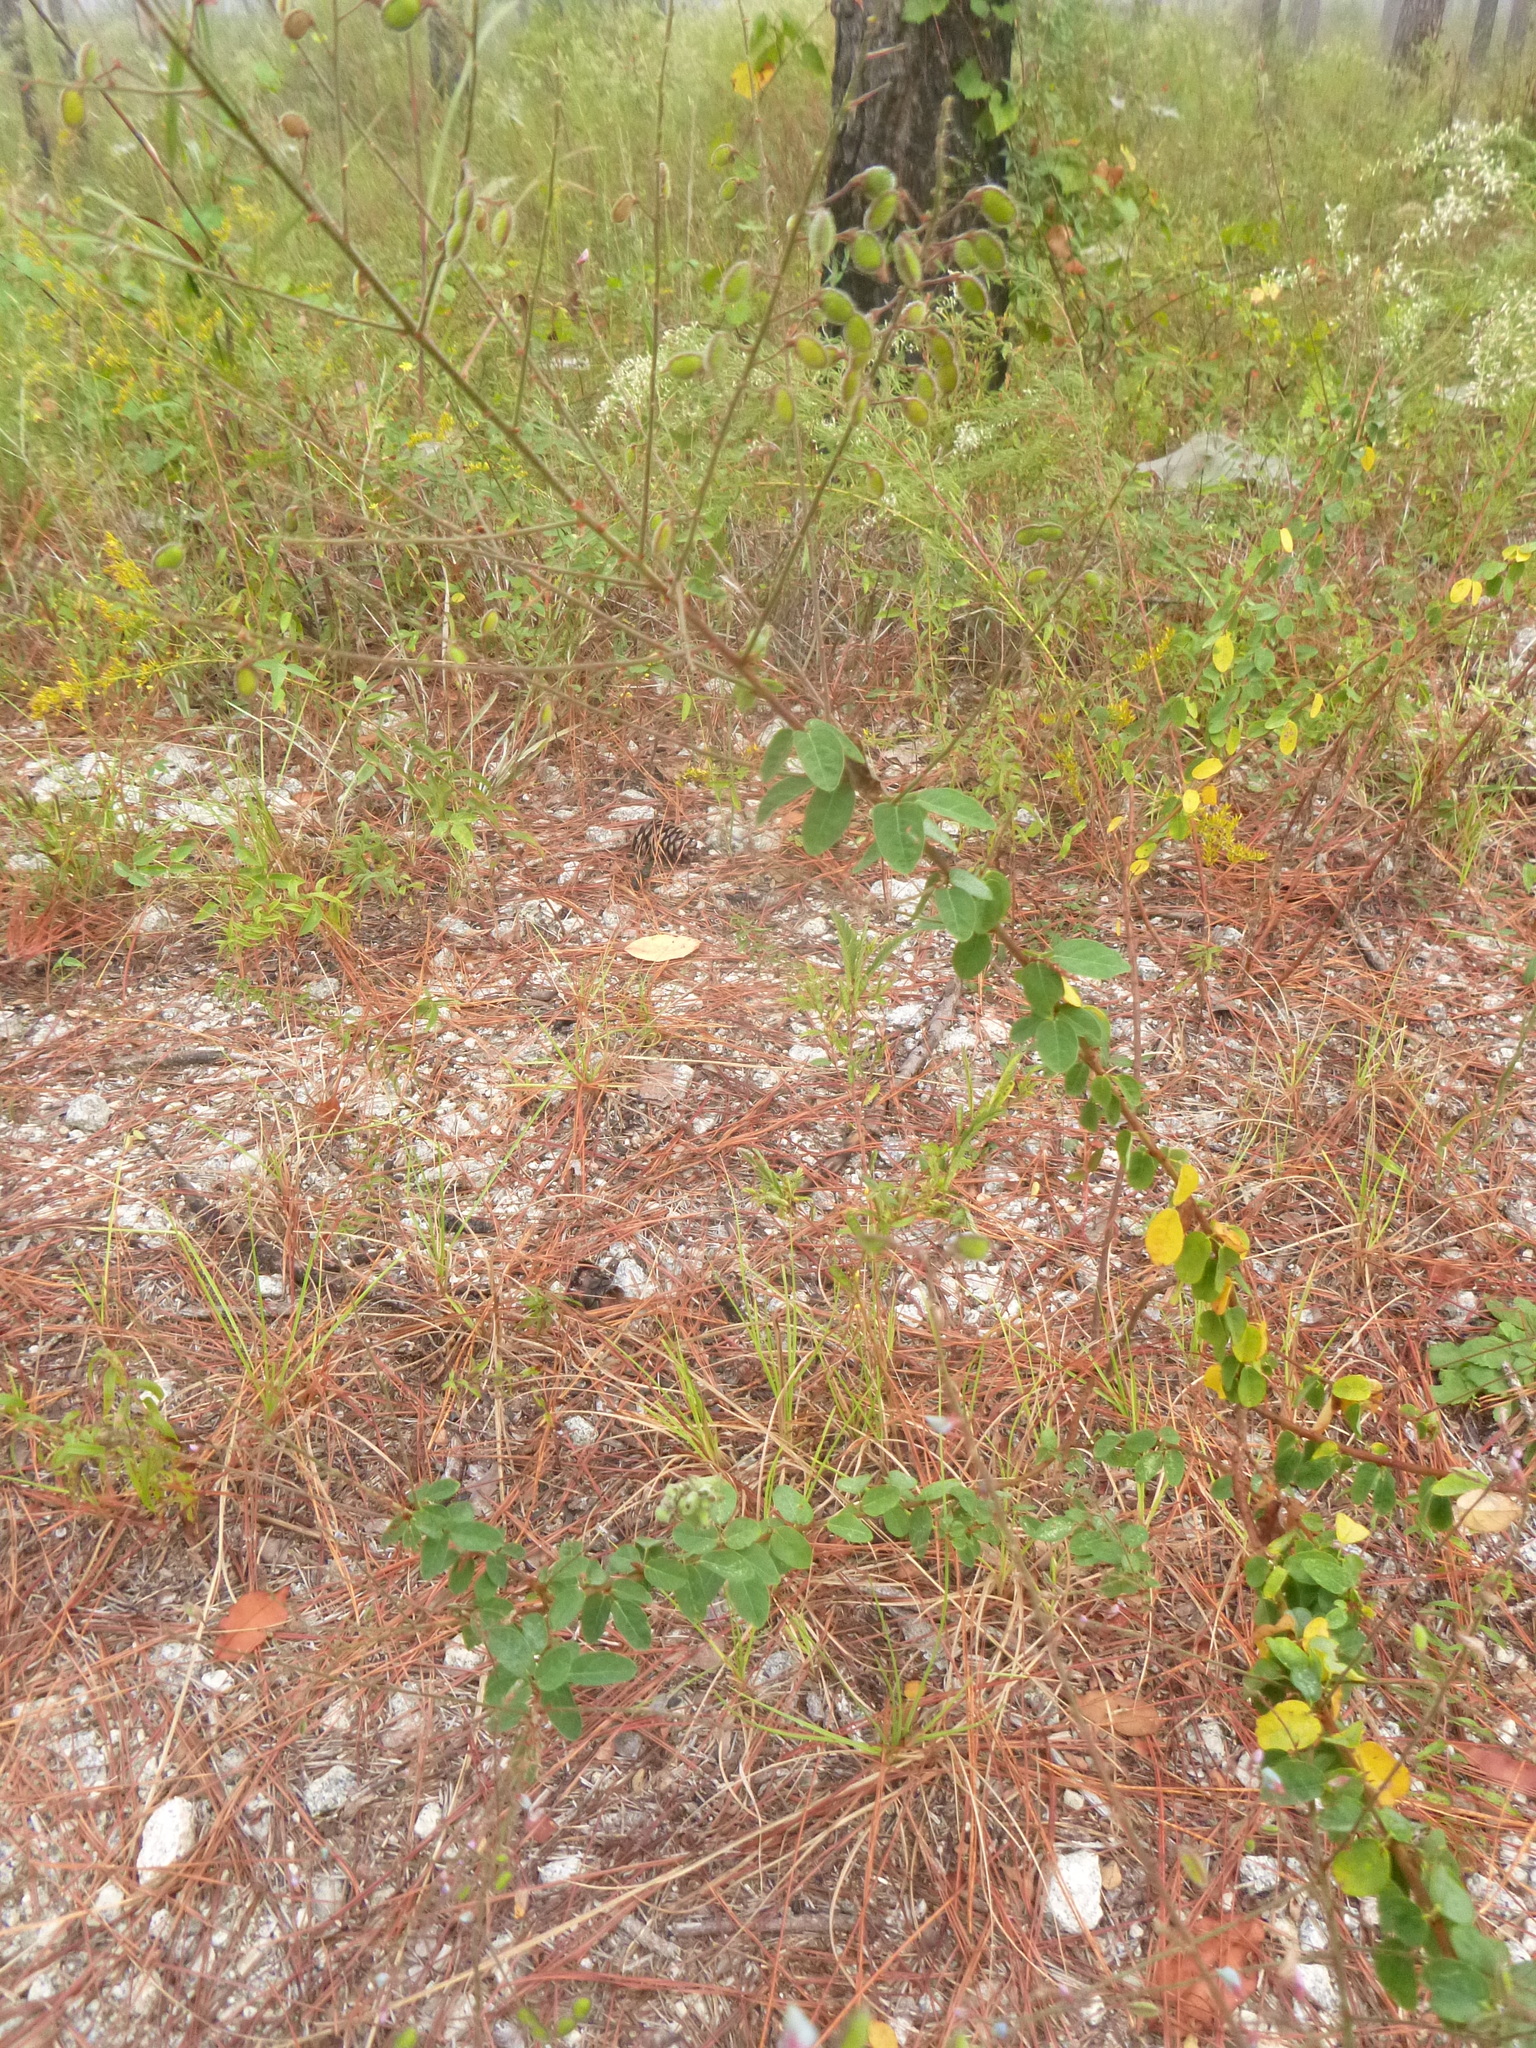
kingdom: Plantae
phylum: Tracheophyta
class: Magnoliopsida
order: Fabales
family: Fabaceae
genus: Desmodium
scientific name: Desmodium ciliare
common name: Hairy small-leaf ticktrefoil
